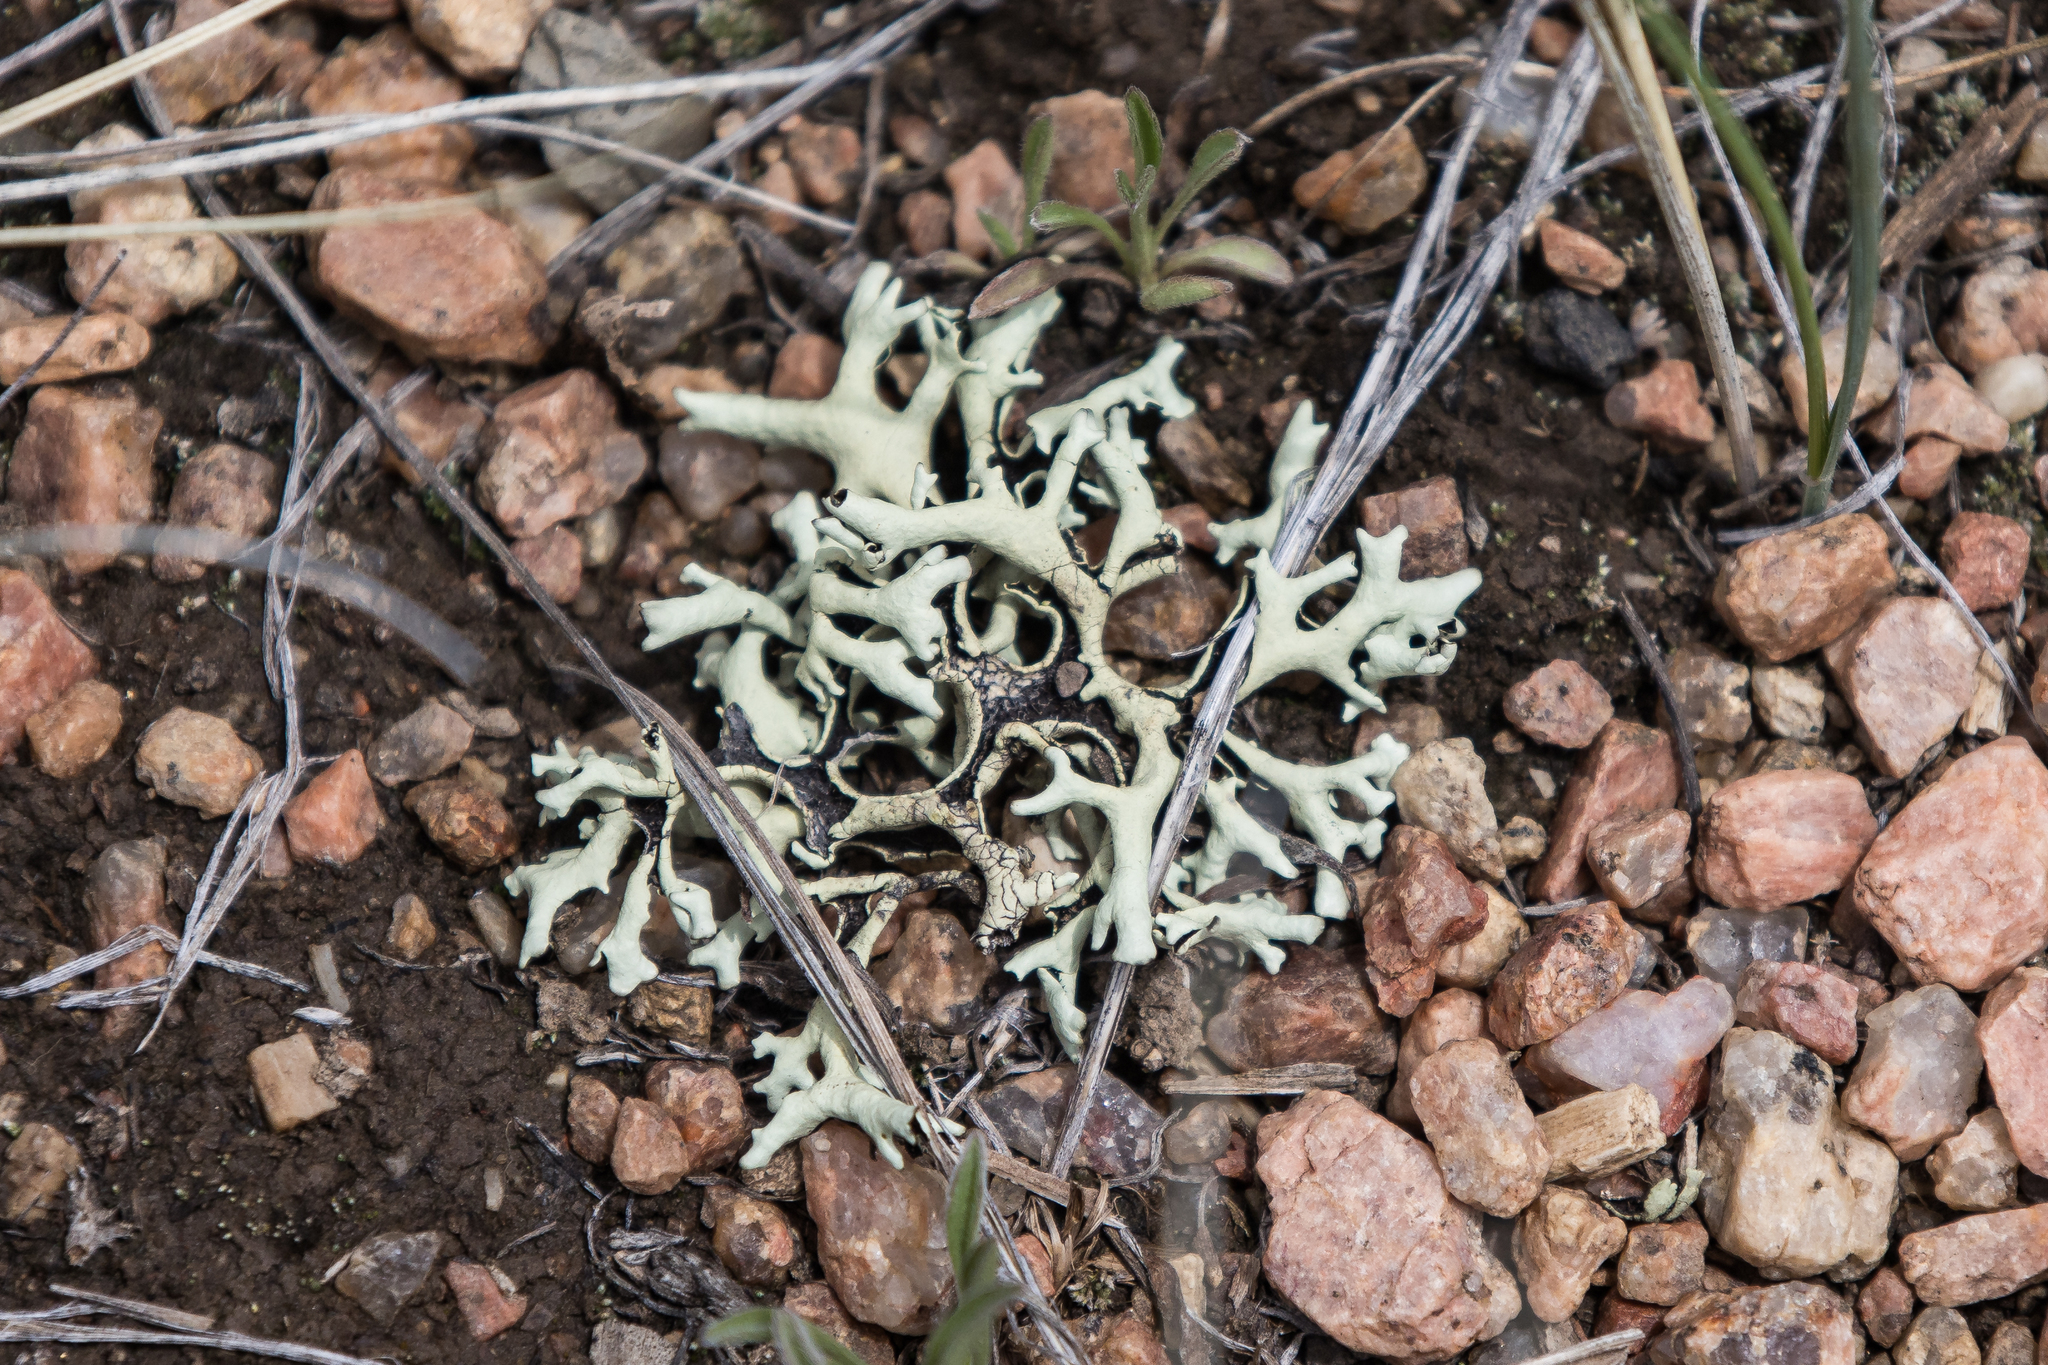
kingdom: Fungi
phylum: Ascomycota
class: Lecanoromycetes
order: Lecanorales
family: Parmeliaceae
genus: Xanthoparmelia
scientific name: Xanthoparmelia chlorochroa
